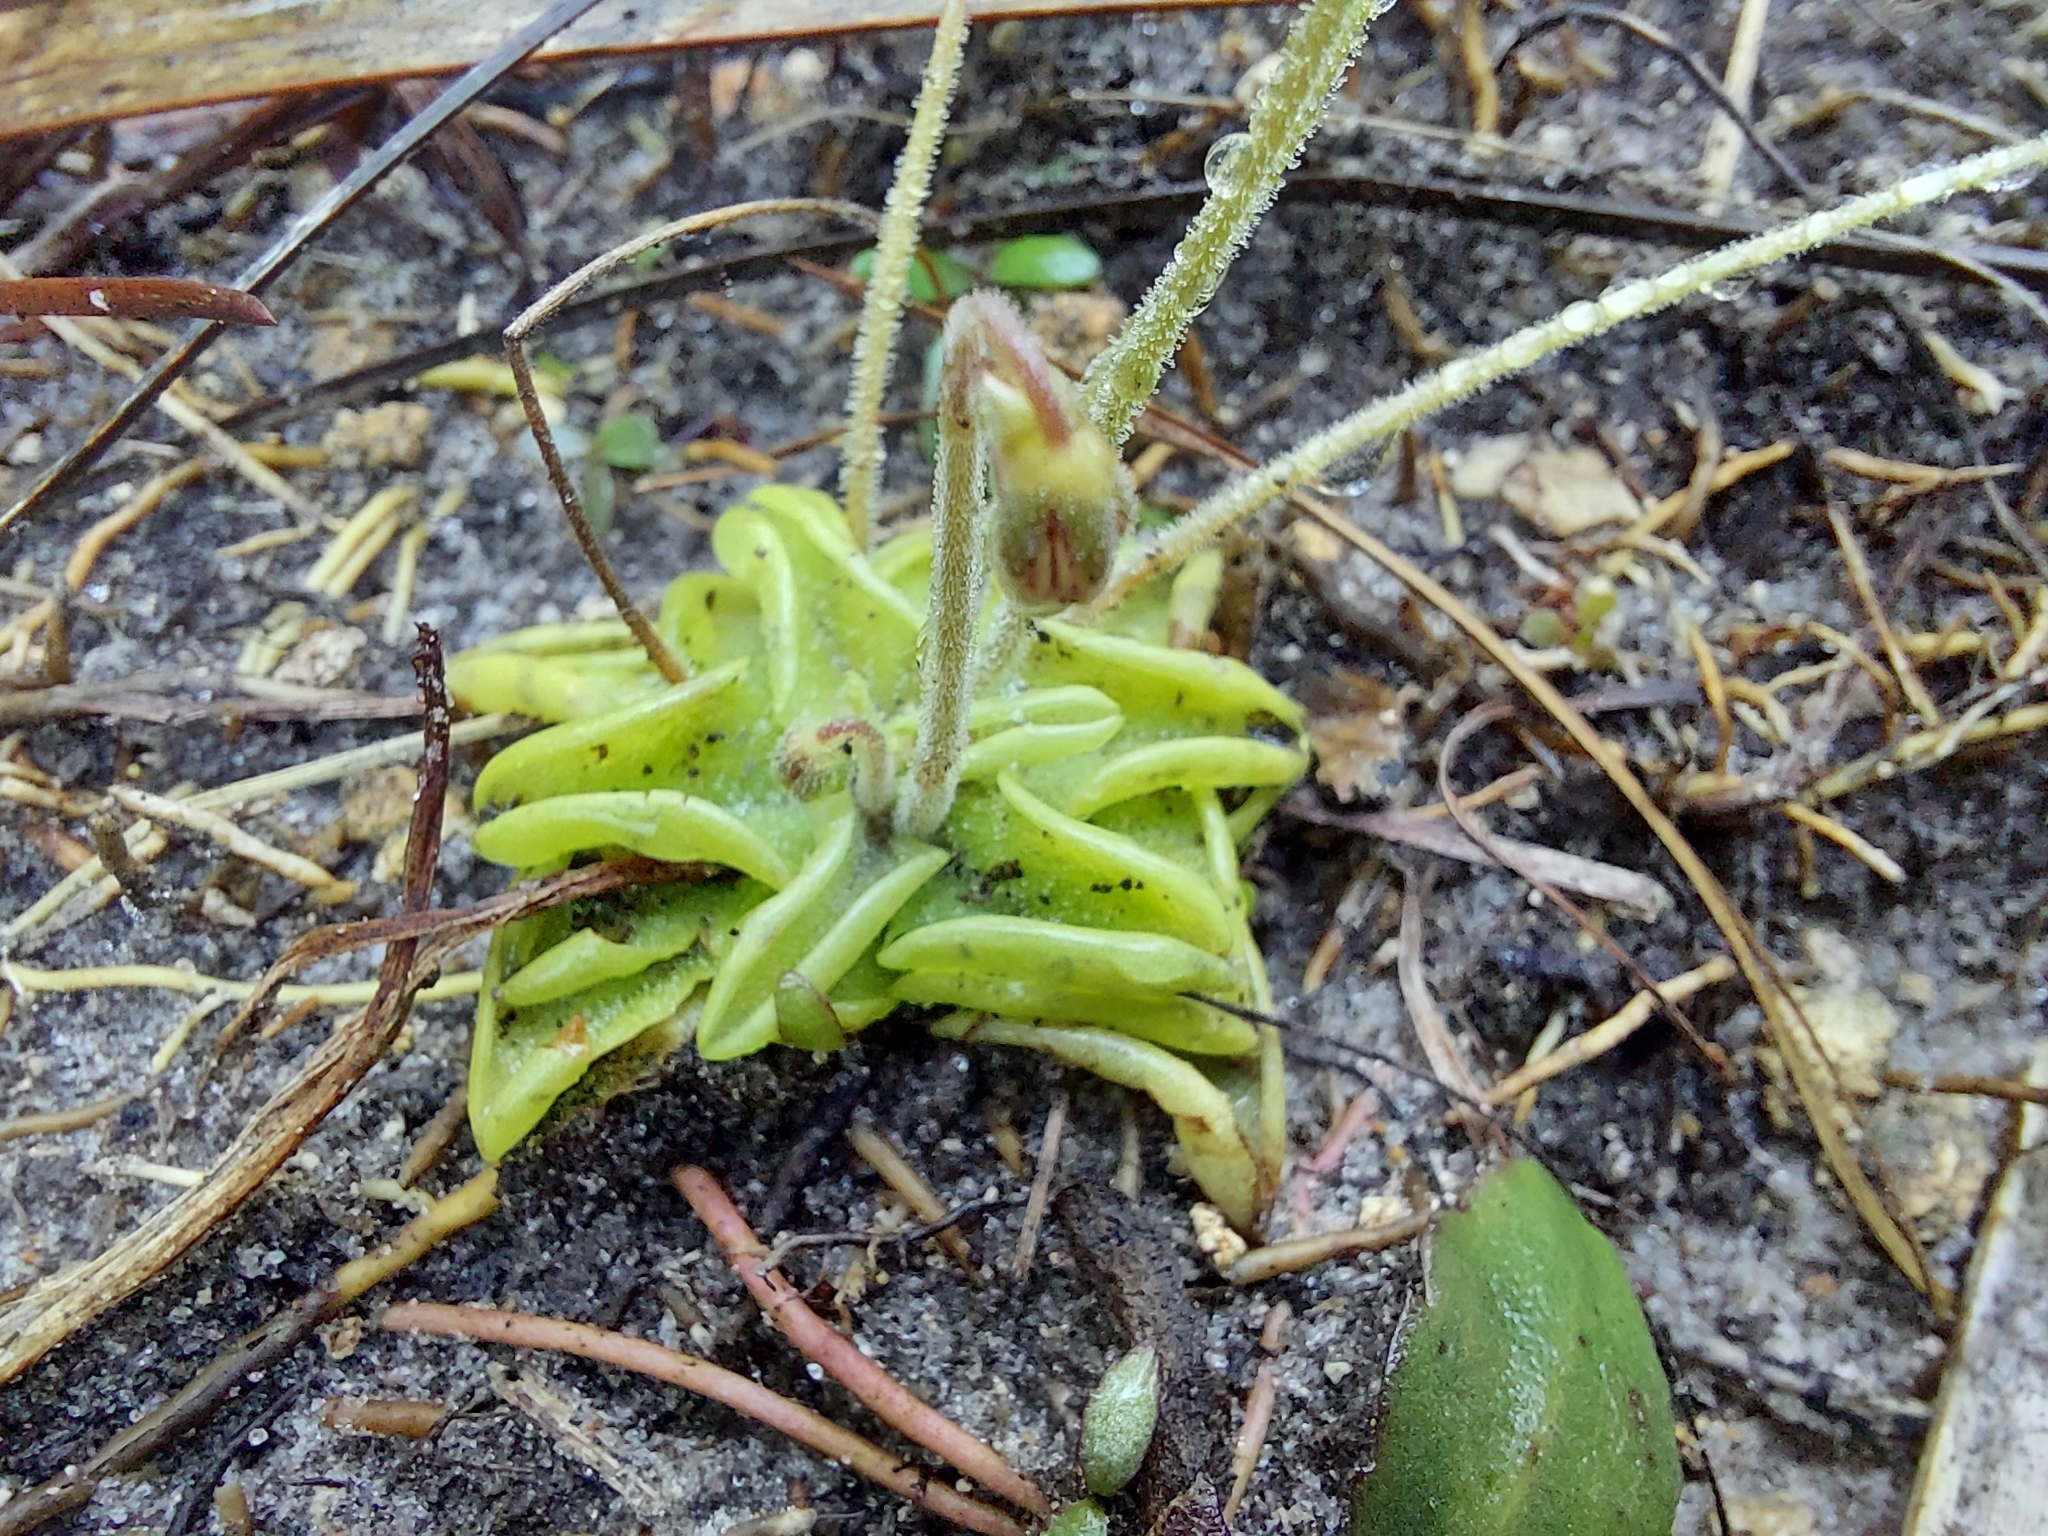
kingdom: Plantae
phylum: Tracheophyta
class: Magnoliopsida
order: Lamiales
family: Lentibulariaceae
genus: Pinguicula
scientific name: Pinguicula pumila
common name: Small butterwort
